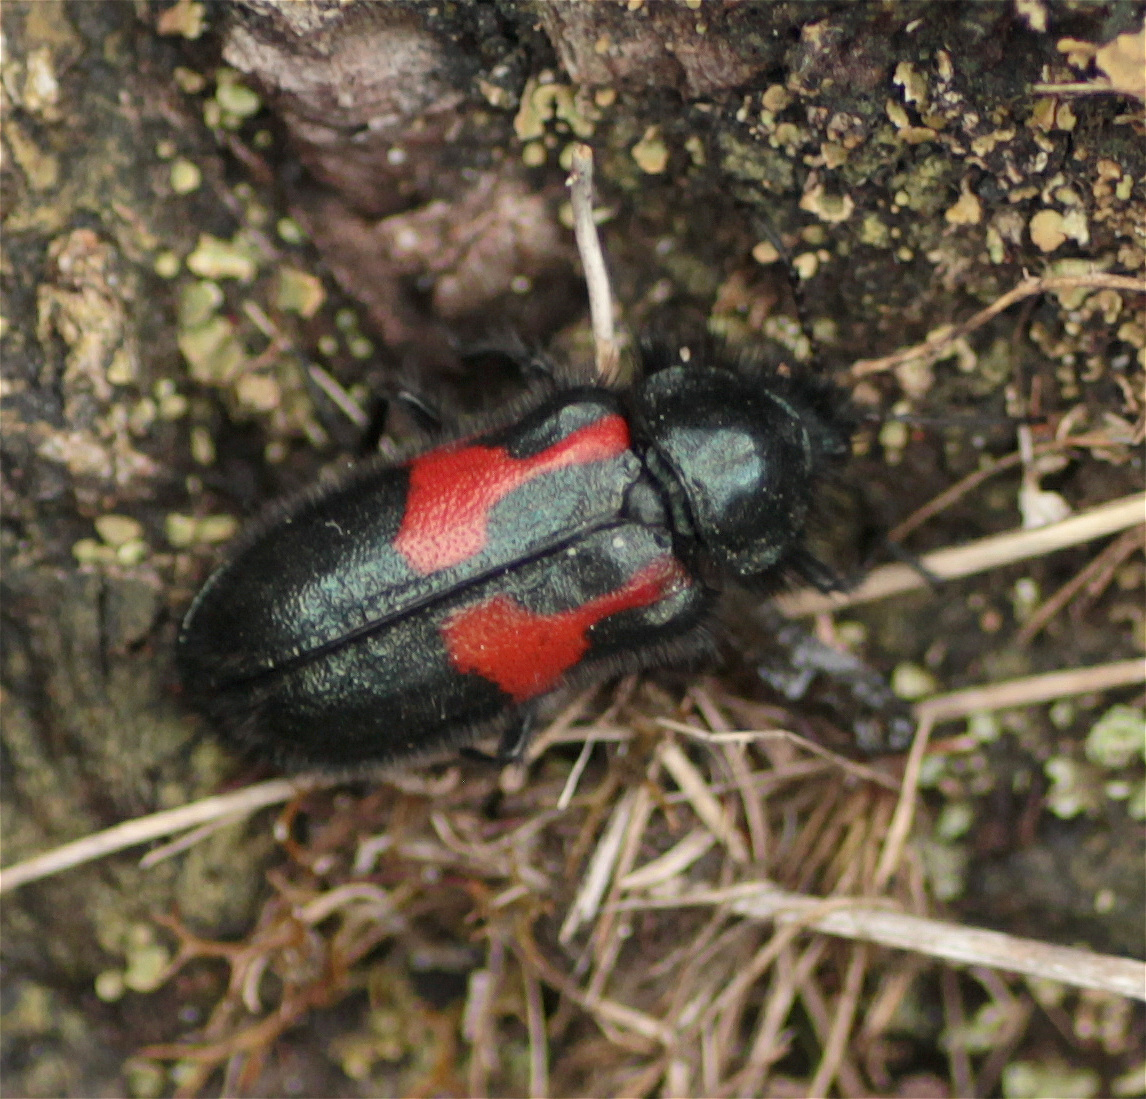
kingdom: Animalia
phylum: Arthropoda
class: Insecta
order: Coleoptera
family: Melyridae
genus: Astylus
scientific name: Astylus
